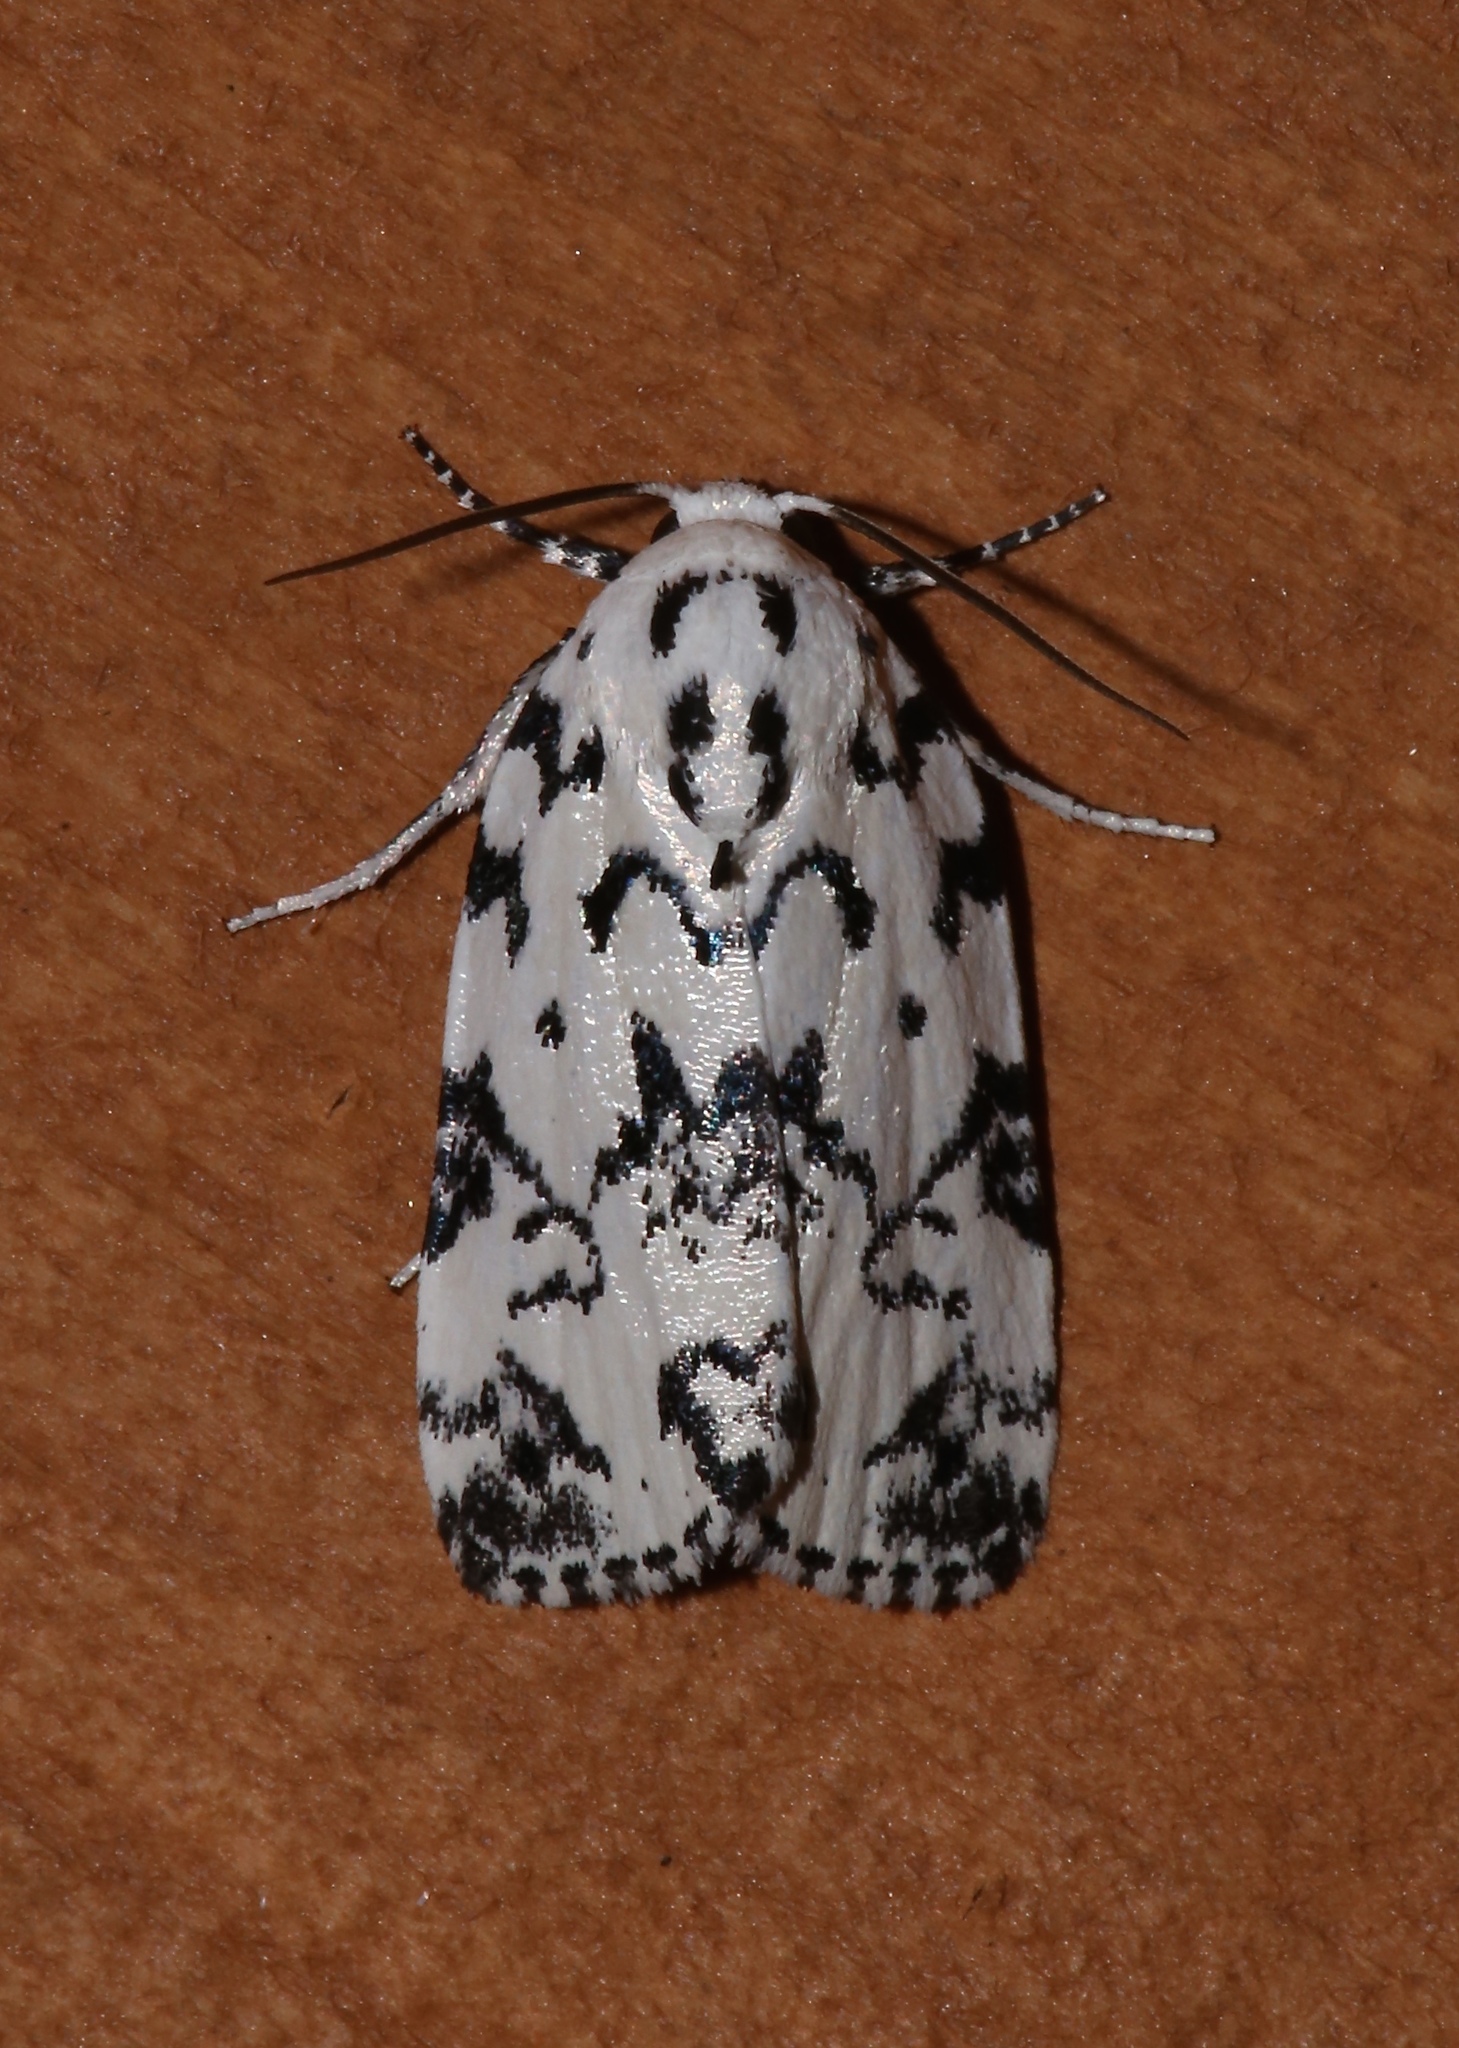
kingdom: Animalia
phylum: Arthropoda
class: Insecta
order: Lepidoptera
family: Noctuidae
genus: Polygrammate
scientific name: Polygrammate hebraeicum
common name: Hebrew moth
